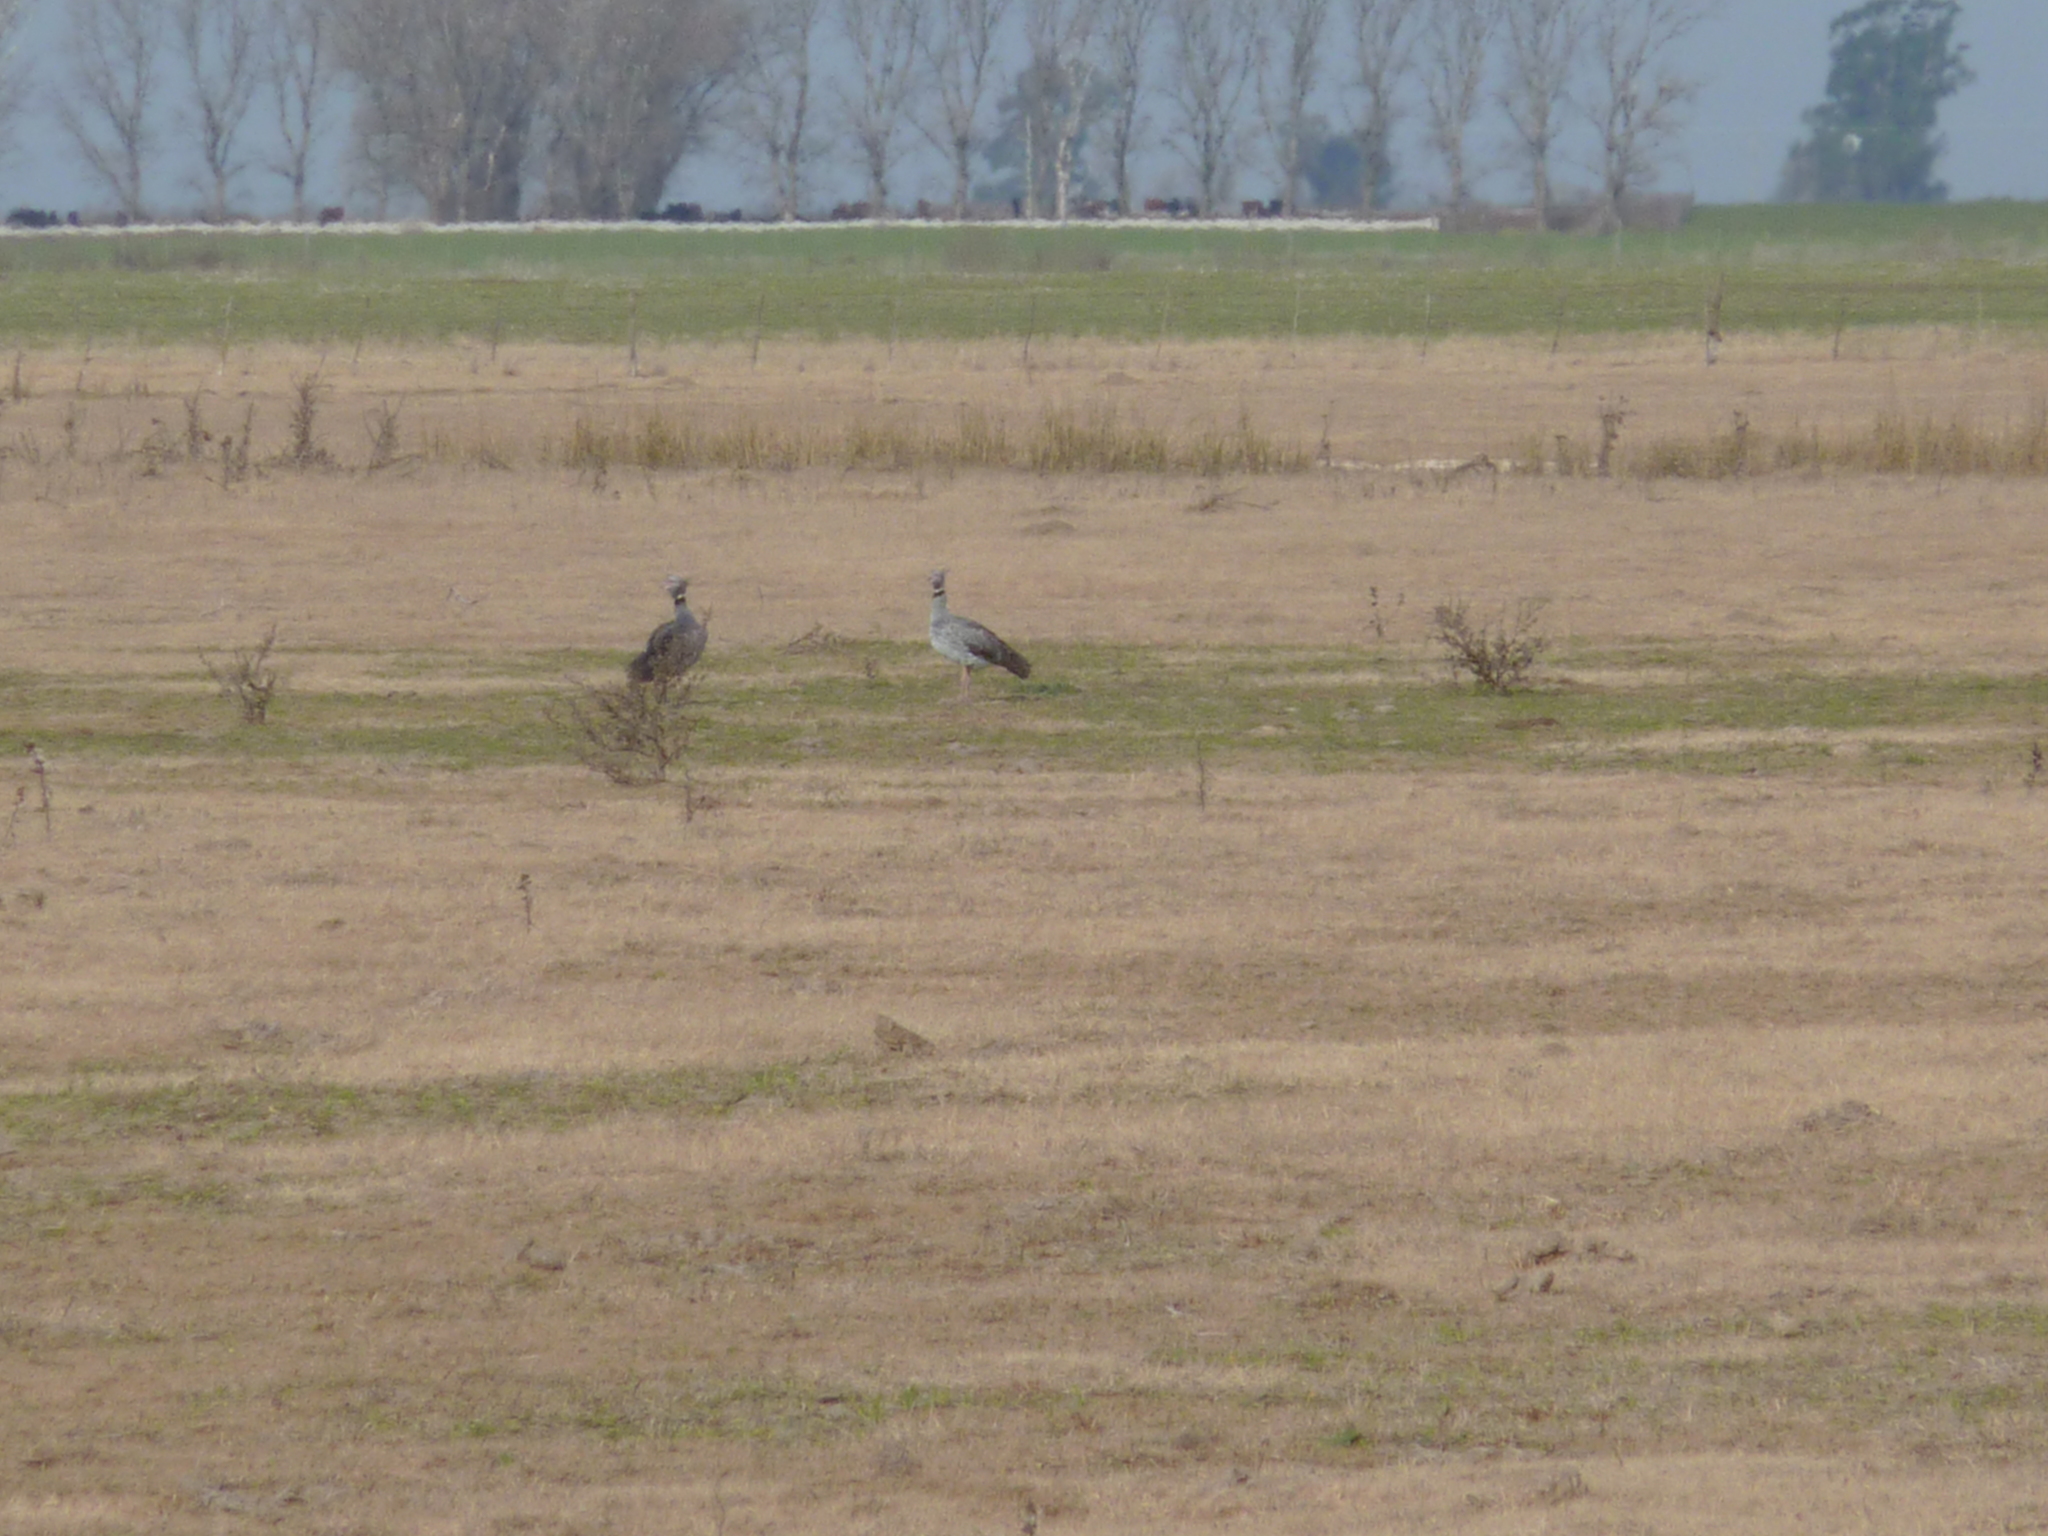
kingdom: Animalia
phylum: Chordata
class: Aves
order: Anseriformes
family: Anhimidae
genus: Chauna
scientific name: Chauna torquata
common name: Southern screamer
